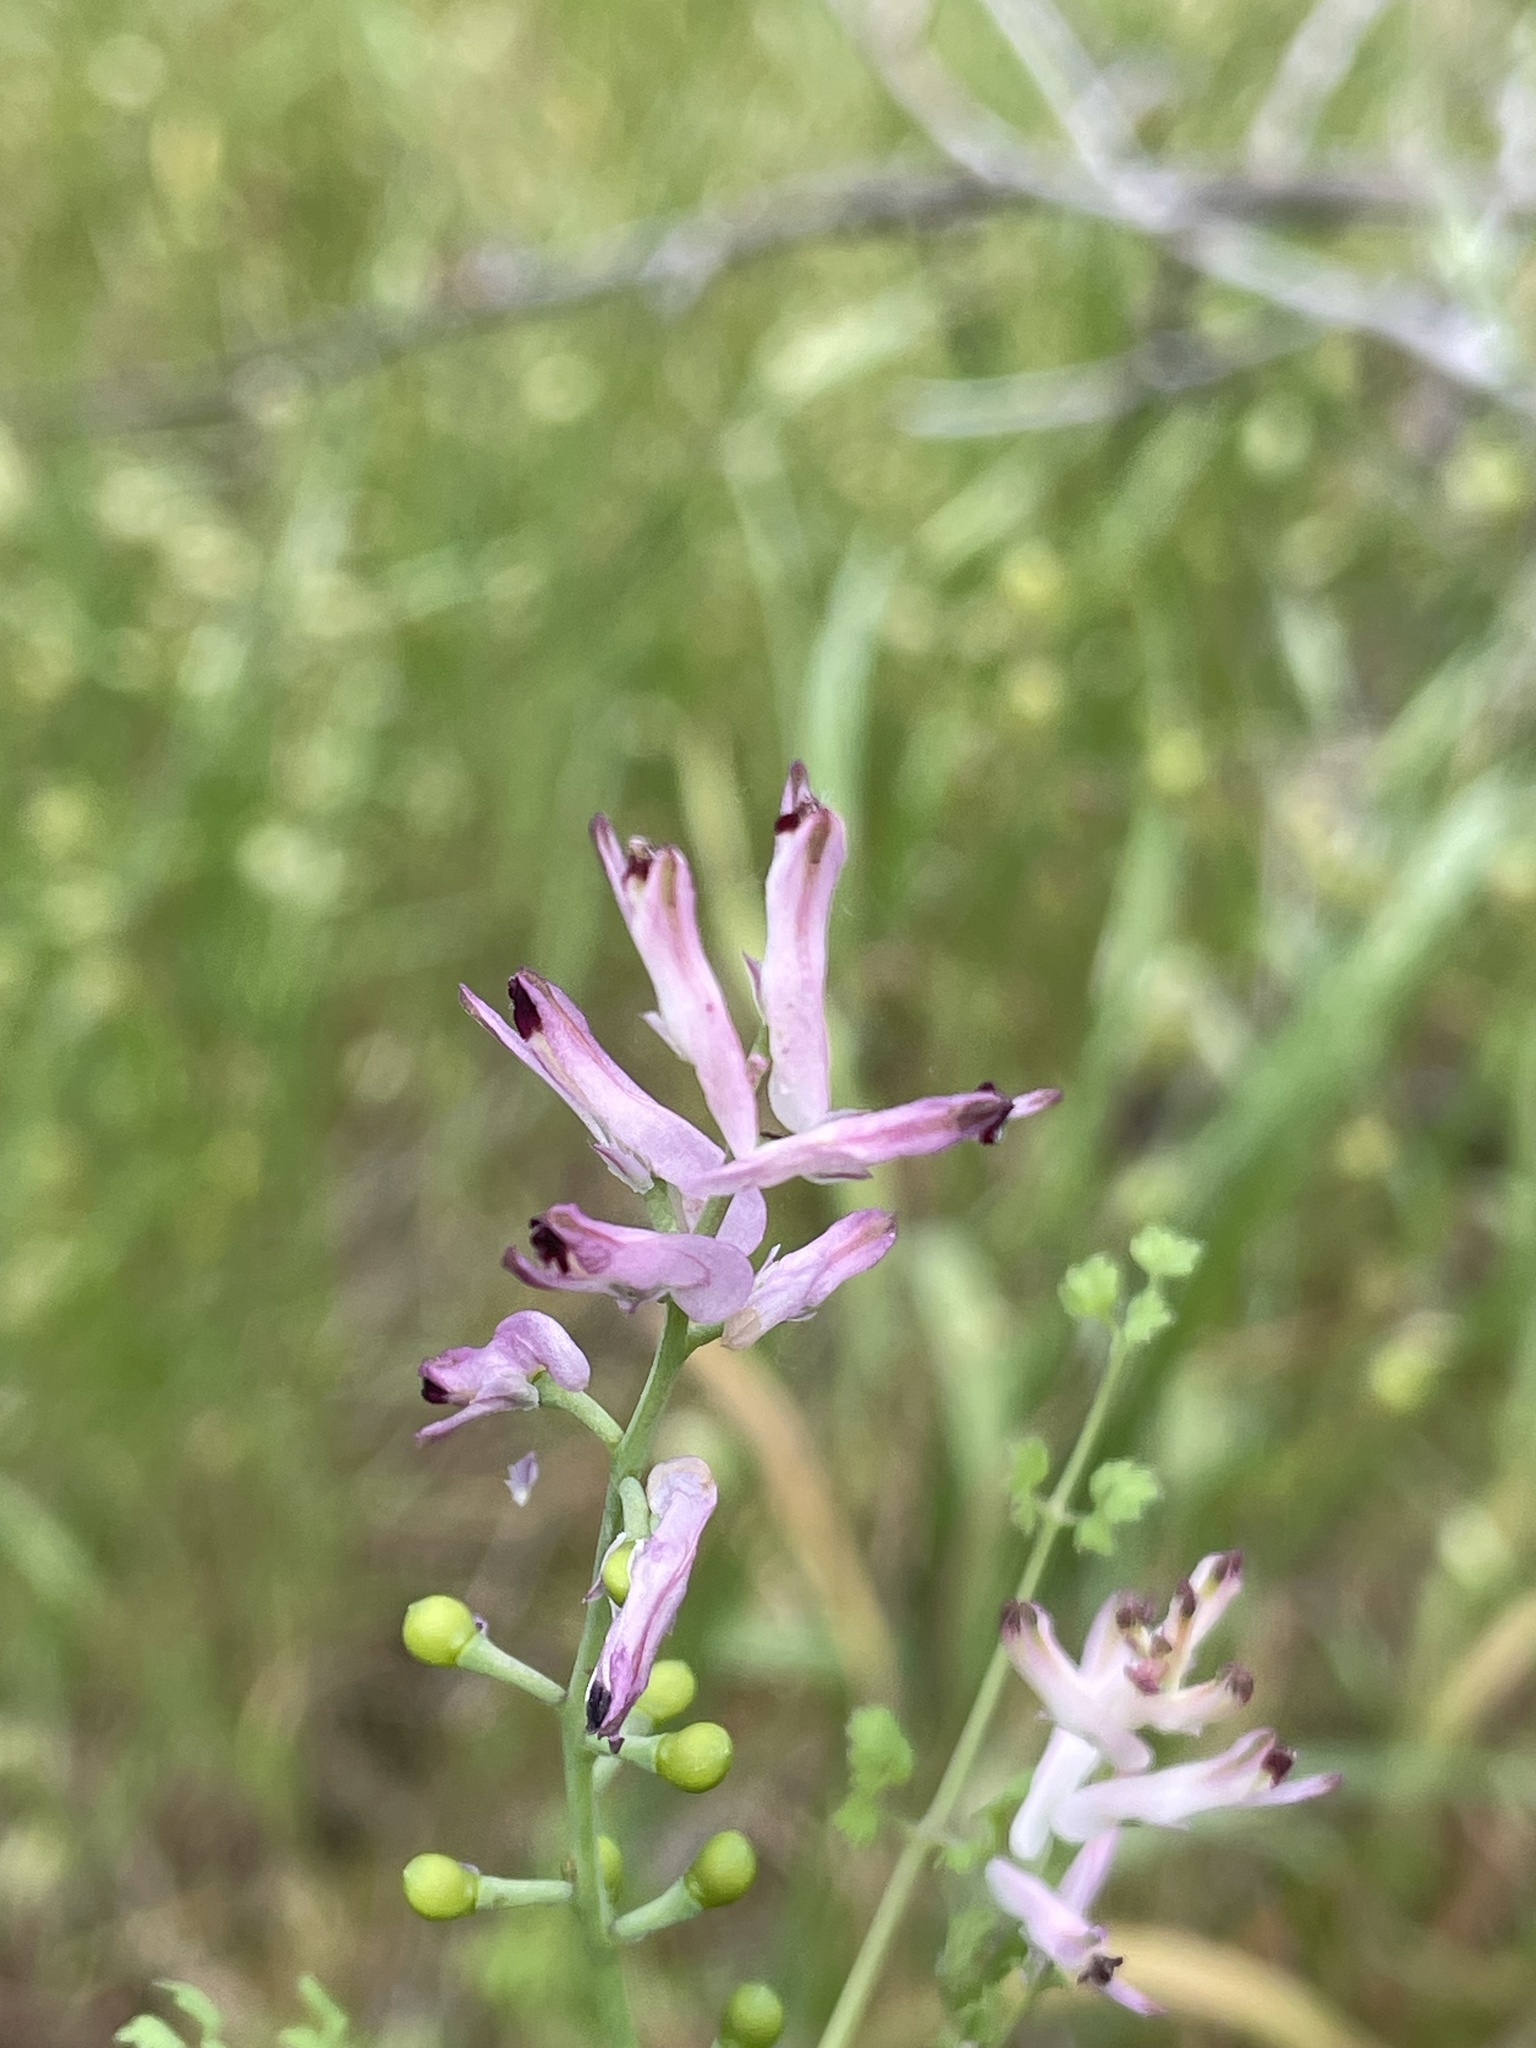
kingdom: Plantae
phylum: Tracheophyta
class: Magnoliopsida
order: Ranunculales
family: Papaveraceae
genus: Fumaria
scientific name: Fumaria bastardii
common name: Tall ramping-fumitory
